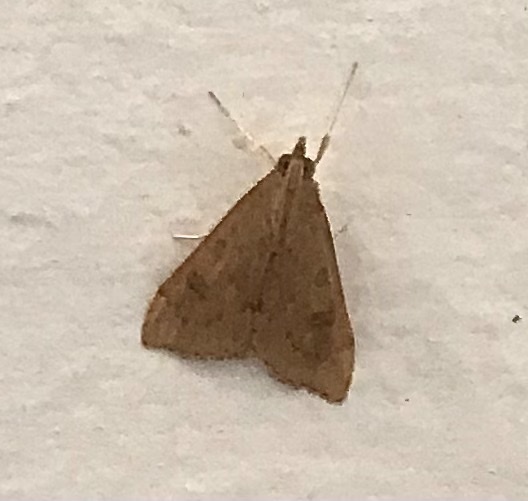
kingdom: Animalia
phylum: Arthropoda
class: Insecta
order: Lepidoptera
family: Crambidae
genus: Udea
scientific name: Udea ferrugalis
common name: Rusty dot
